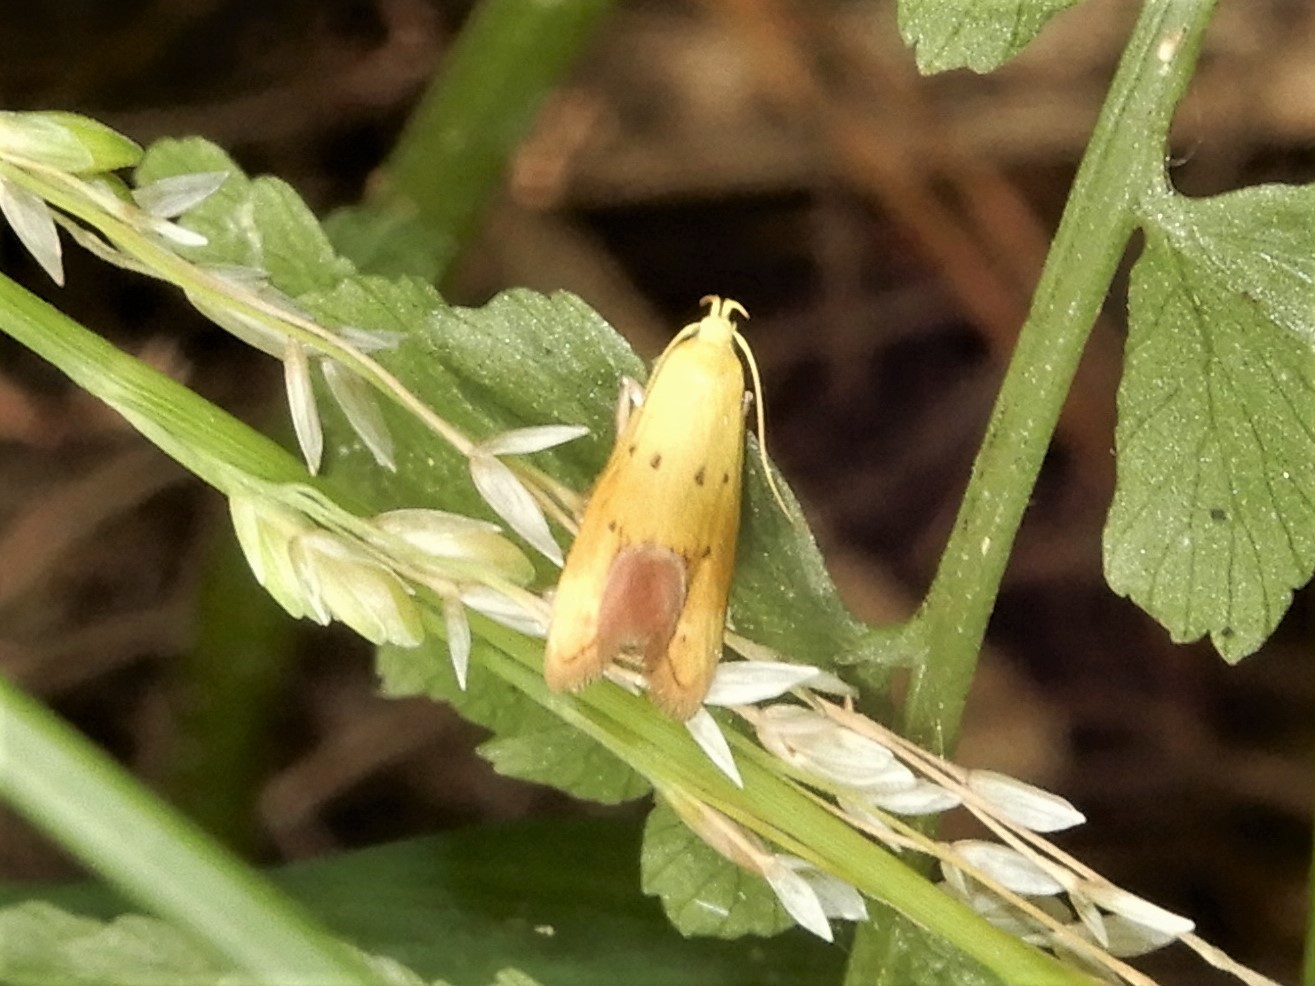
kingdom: Animalia
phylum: Arthropoda
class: Insecta
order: Lepidoptera
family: Oecophoridae
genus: Gymnobathra
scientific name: Gymnobathra flavidella
